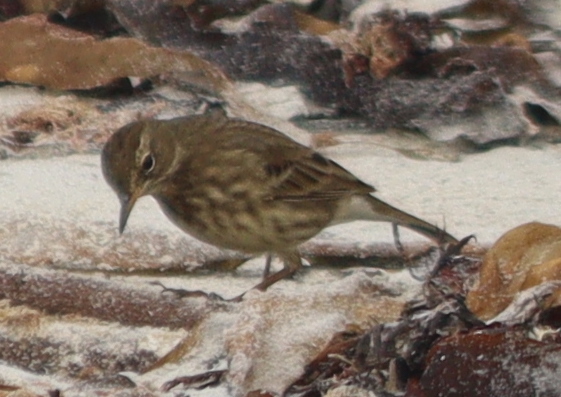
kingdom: Animalia
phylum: Chordata
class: Aves
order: Passeriformes
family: Motacillidae
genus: Anthus
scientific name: Anthus petrosus
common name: Eurasian rock pipit
